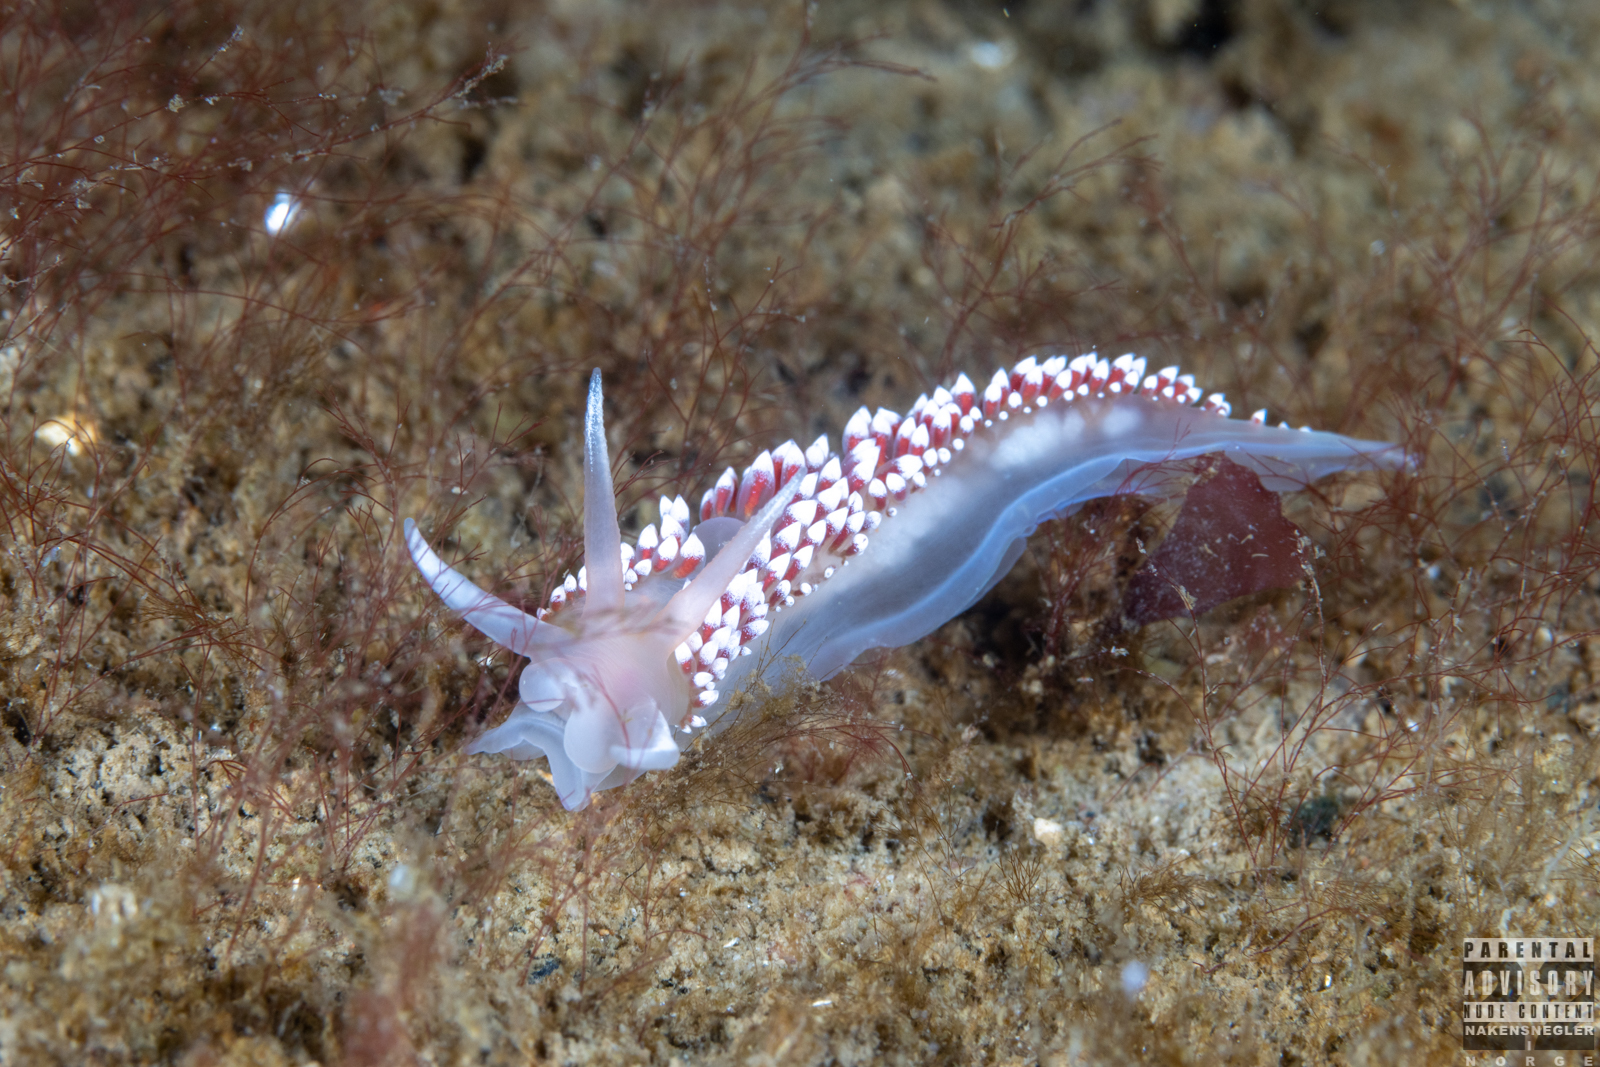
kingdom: Animalia
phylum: Mollusca
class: Gastropoda
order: Nudibranchia
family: Coryphellidae
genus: Coryphella
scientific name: Coryphella verrucosa
